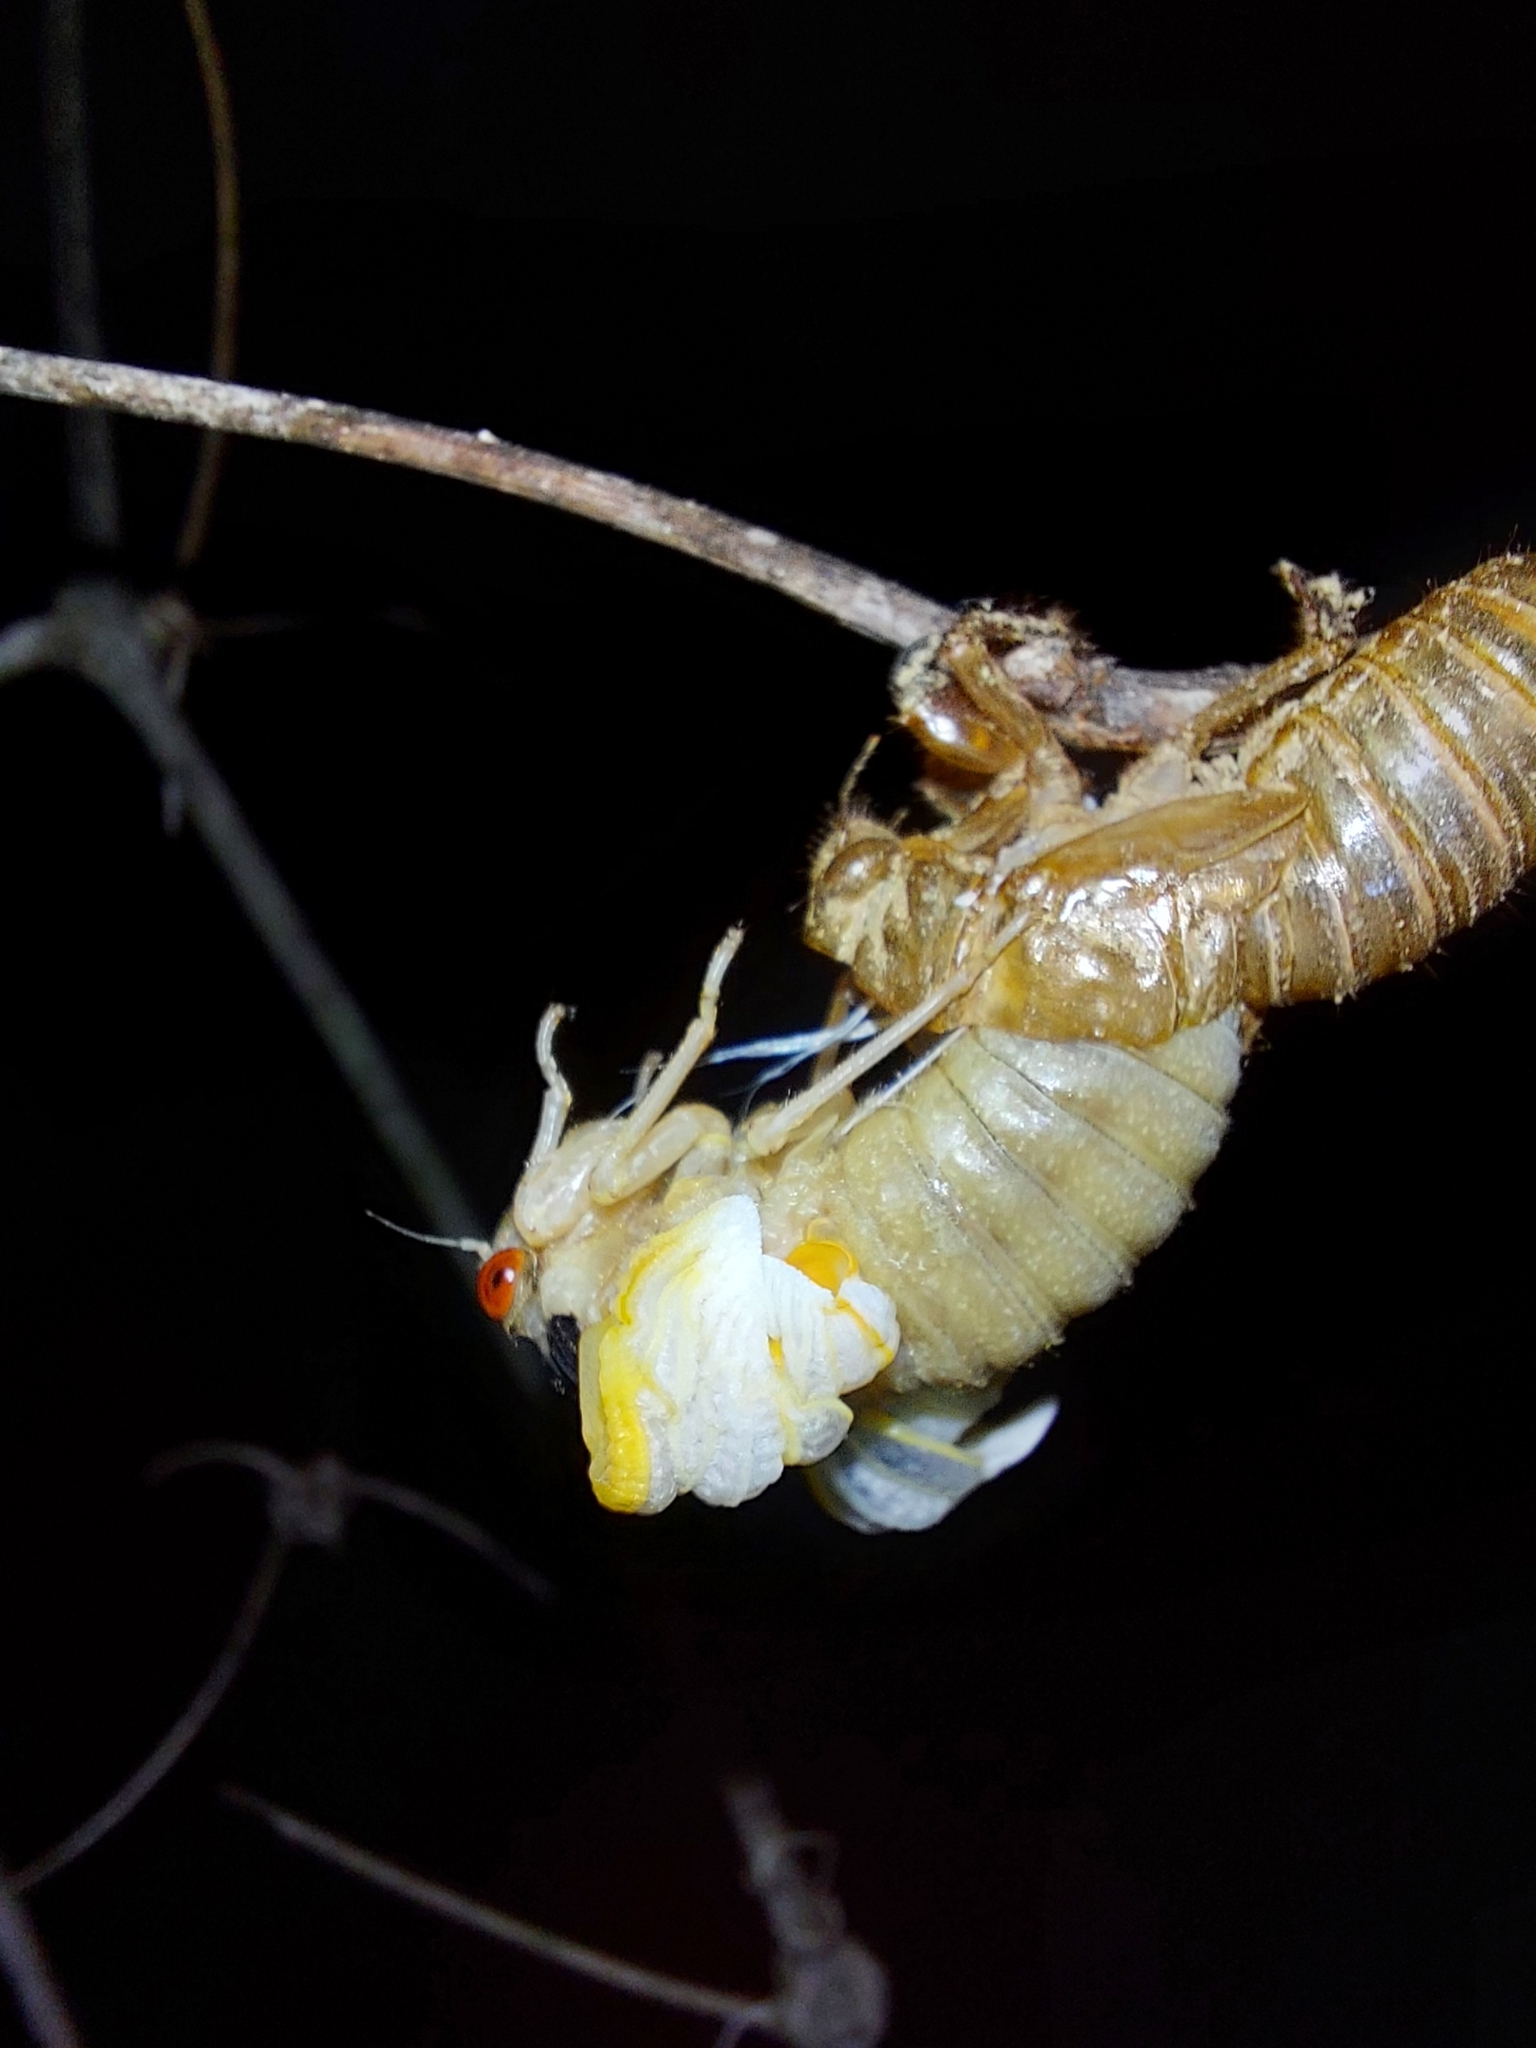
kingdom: Animalia
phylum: Arthropoda
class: Insecta
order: Hemiptera
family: Cicadidae
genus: Magicicada
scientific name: Magicicada
